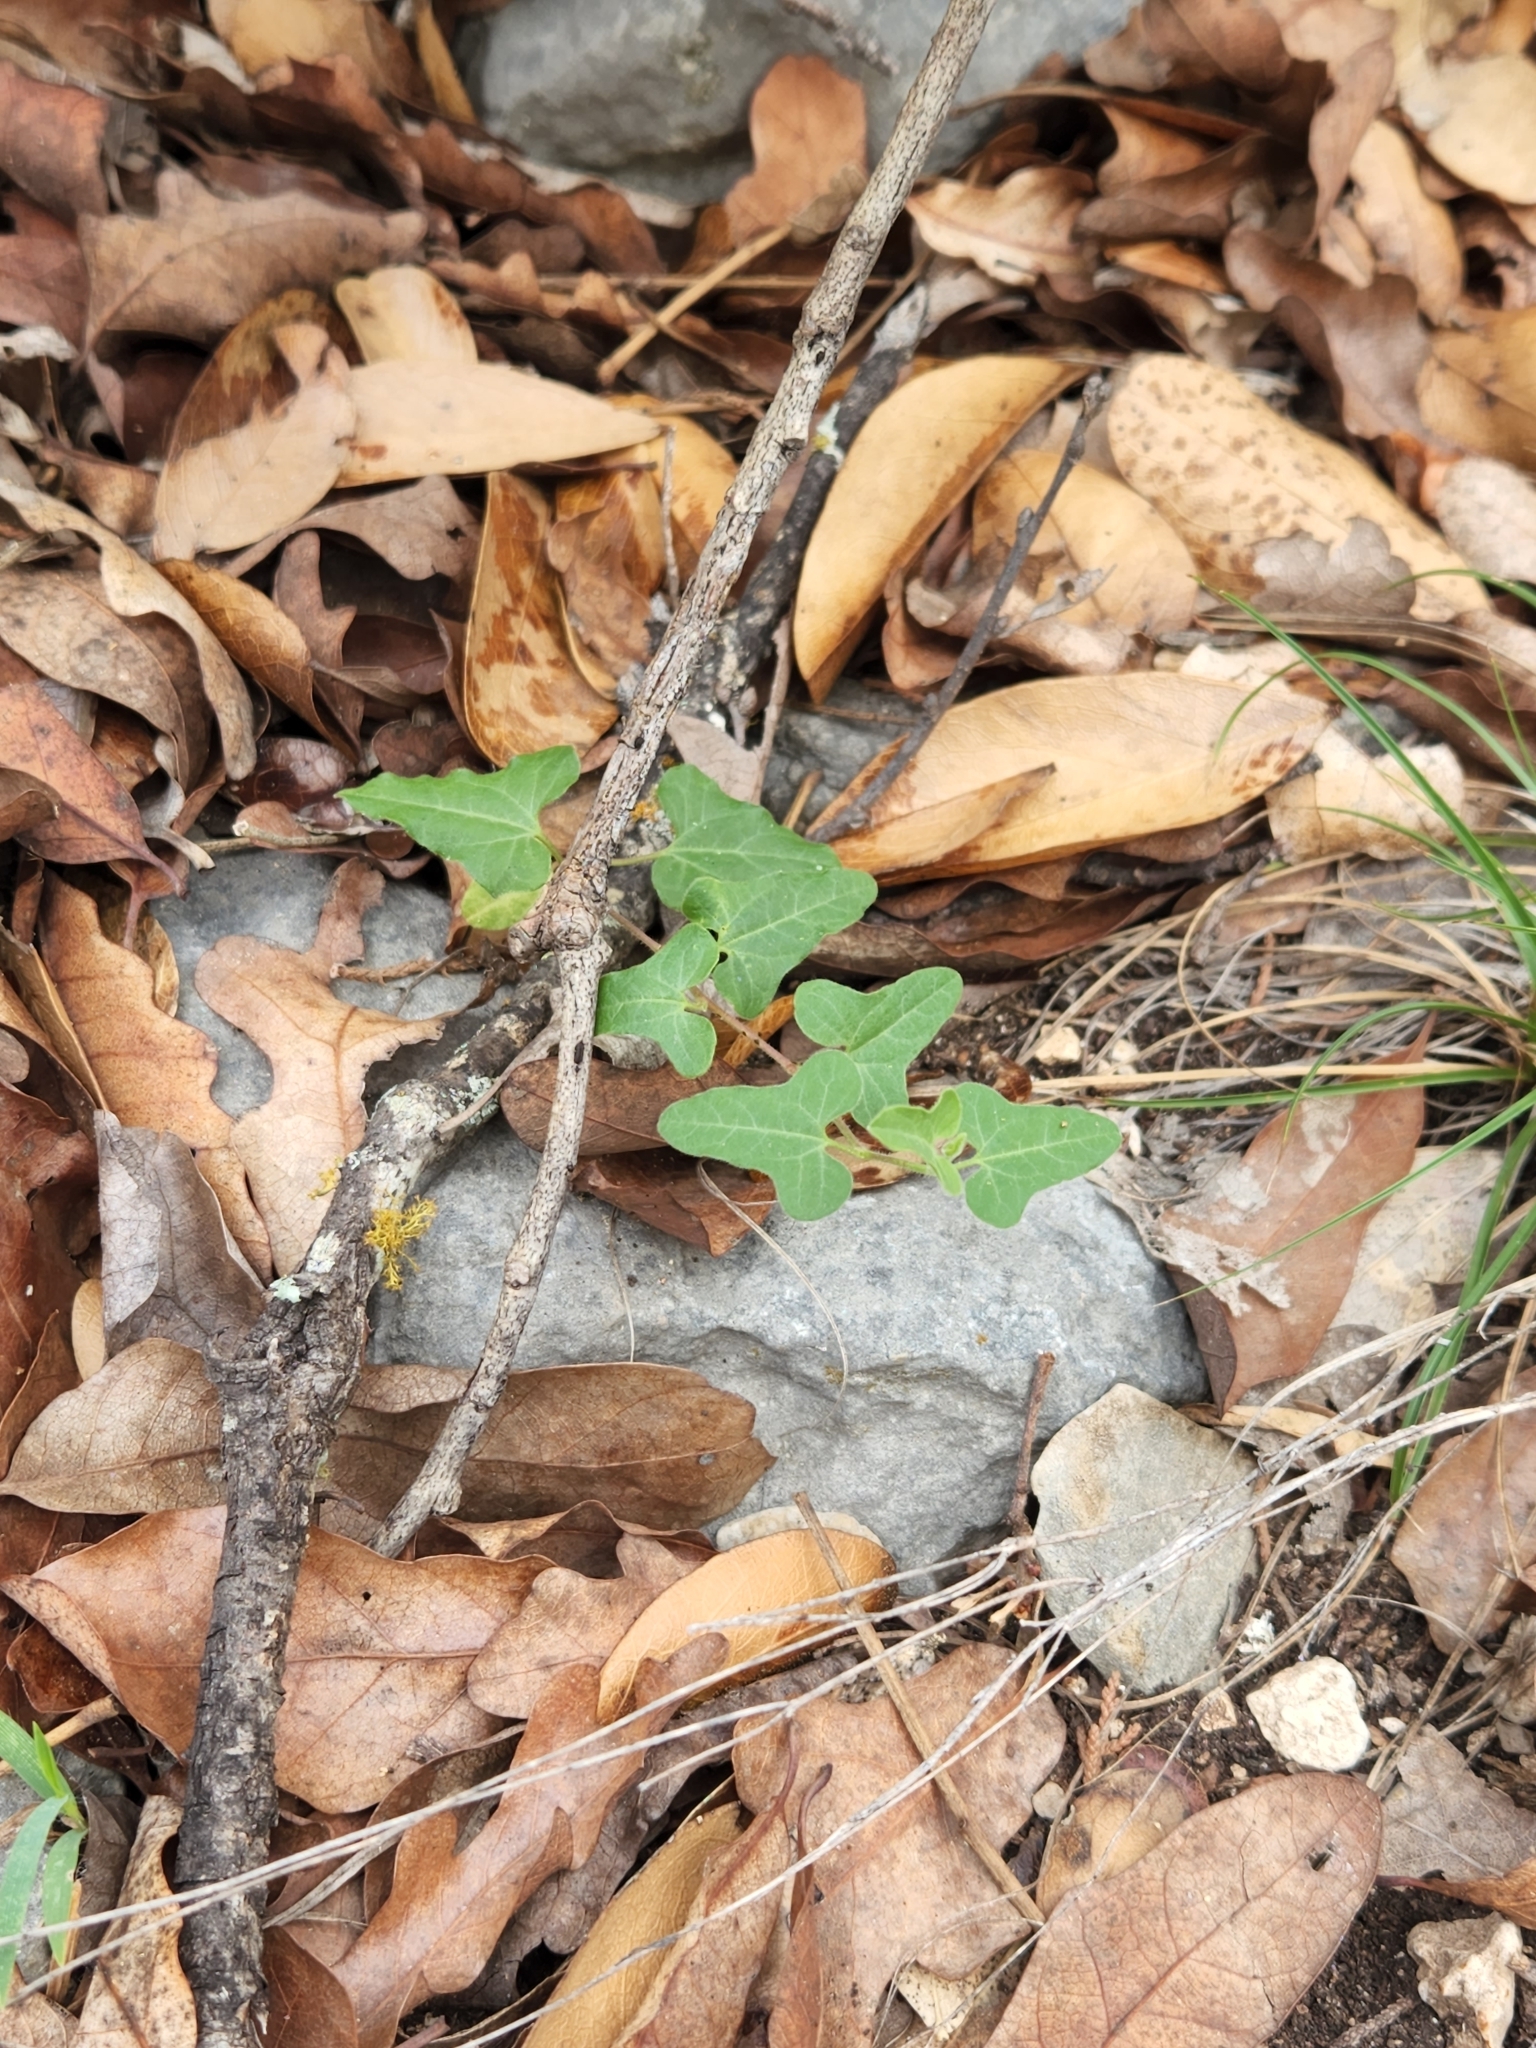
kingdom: Plantae
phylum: Tracheophyta
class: Magnoliopsida
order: Piperales
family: Aristolochiaceae
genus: Aristolochia
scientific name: Aristolochia coryi
